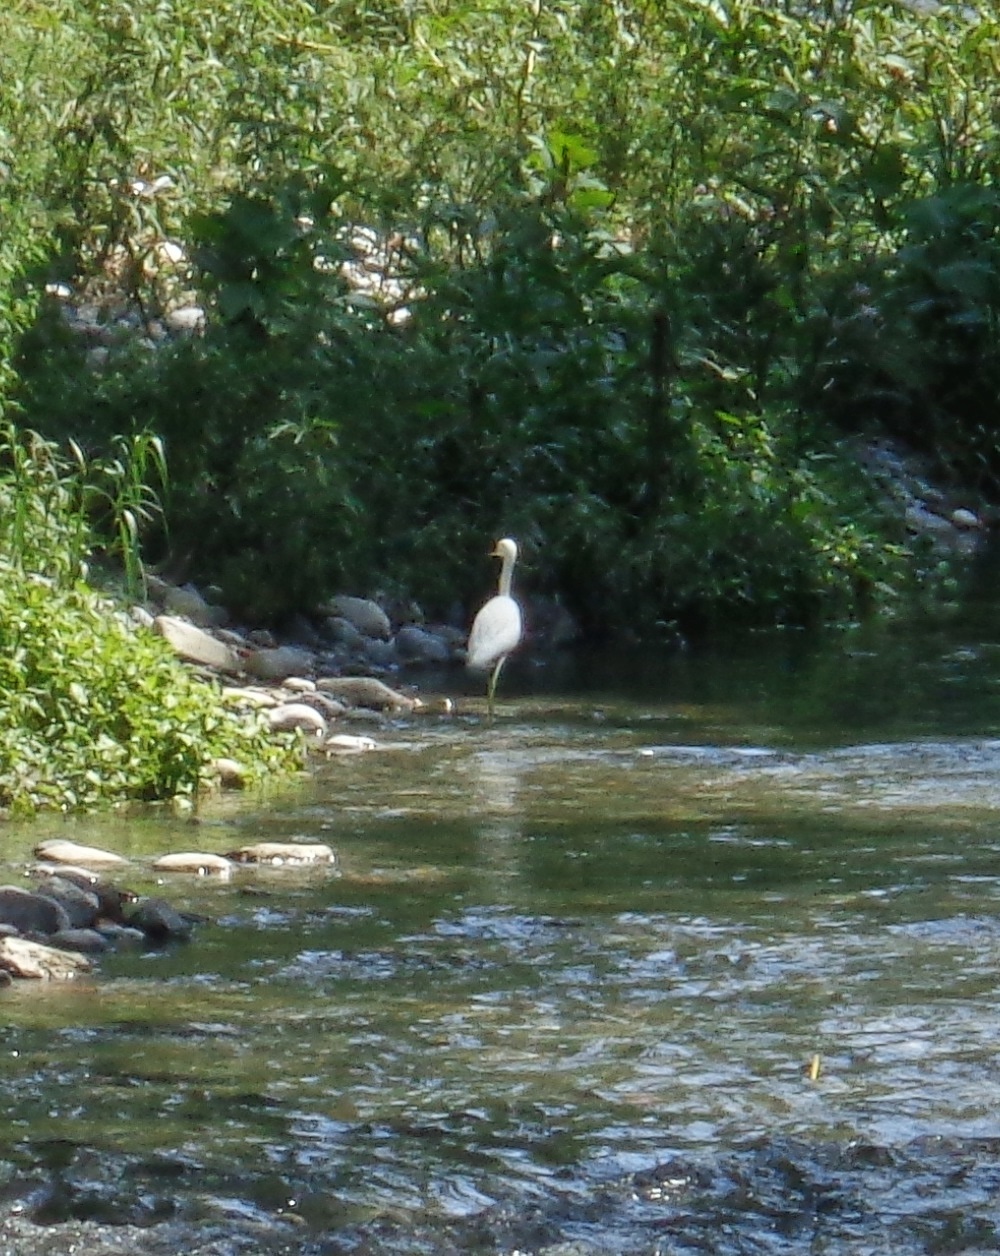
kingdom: Animalia
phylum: Chordata
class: Aves
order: Pelecaniformes
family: Ardeidae
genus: Egretta
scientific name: Egretta thula
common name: Snowy egret
